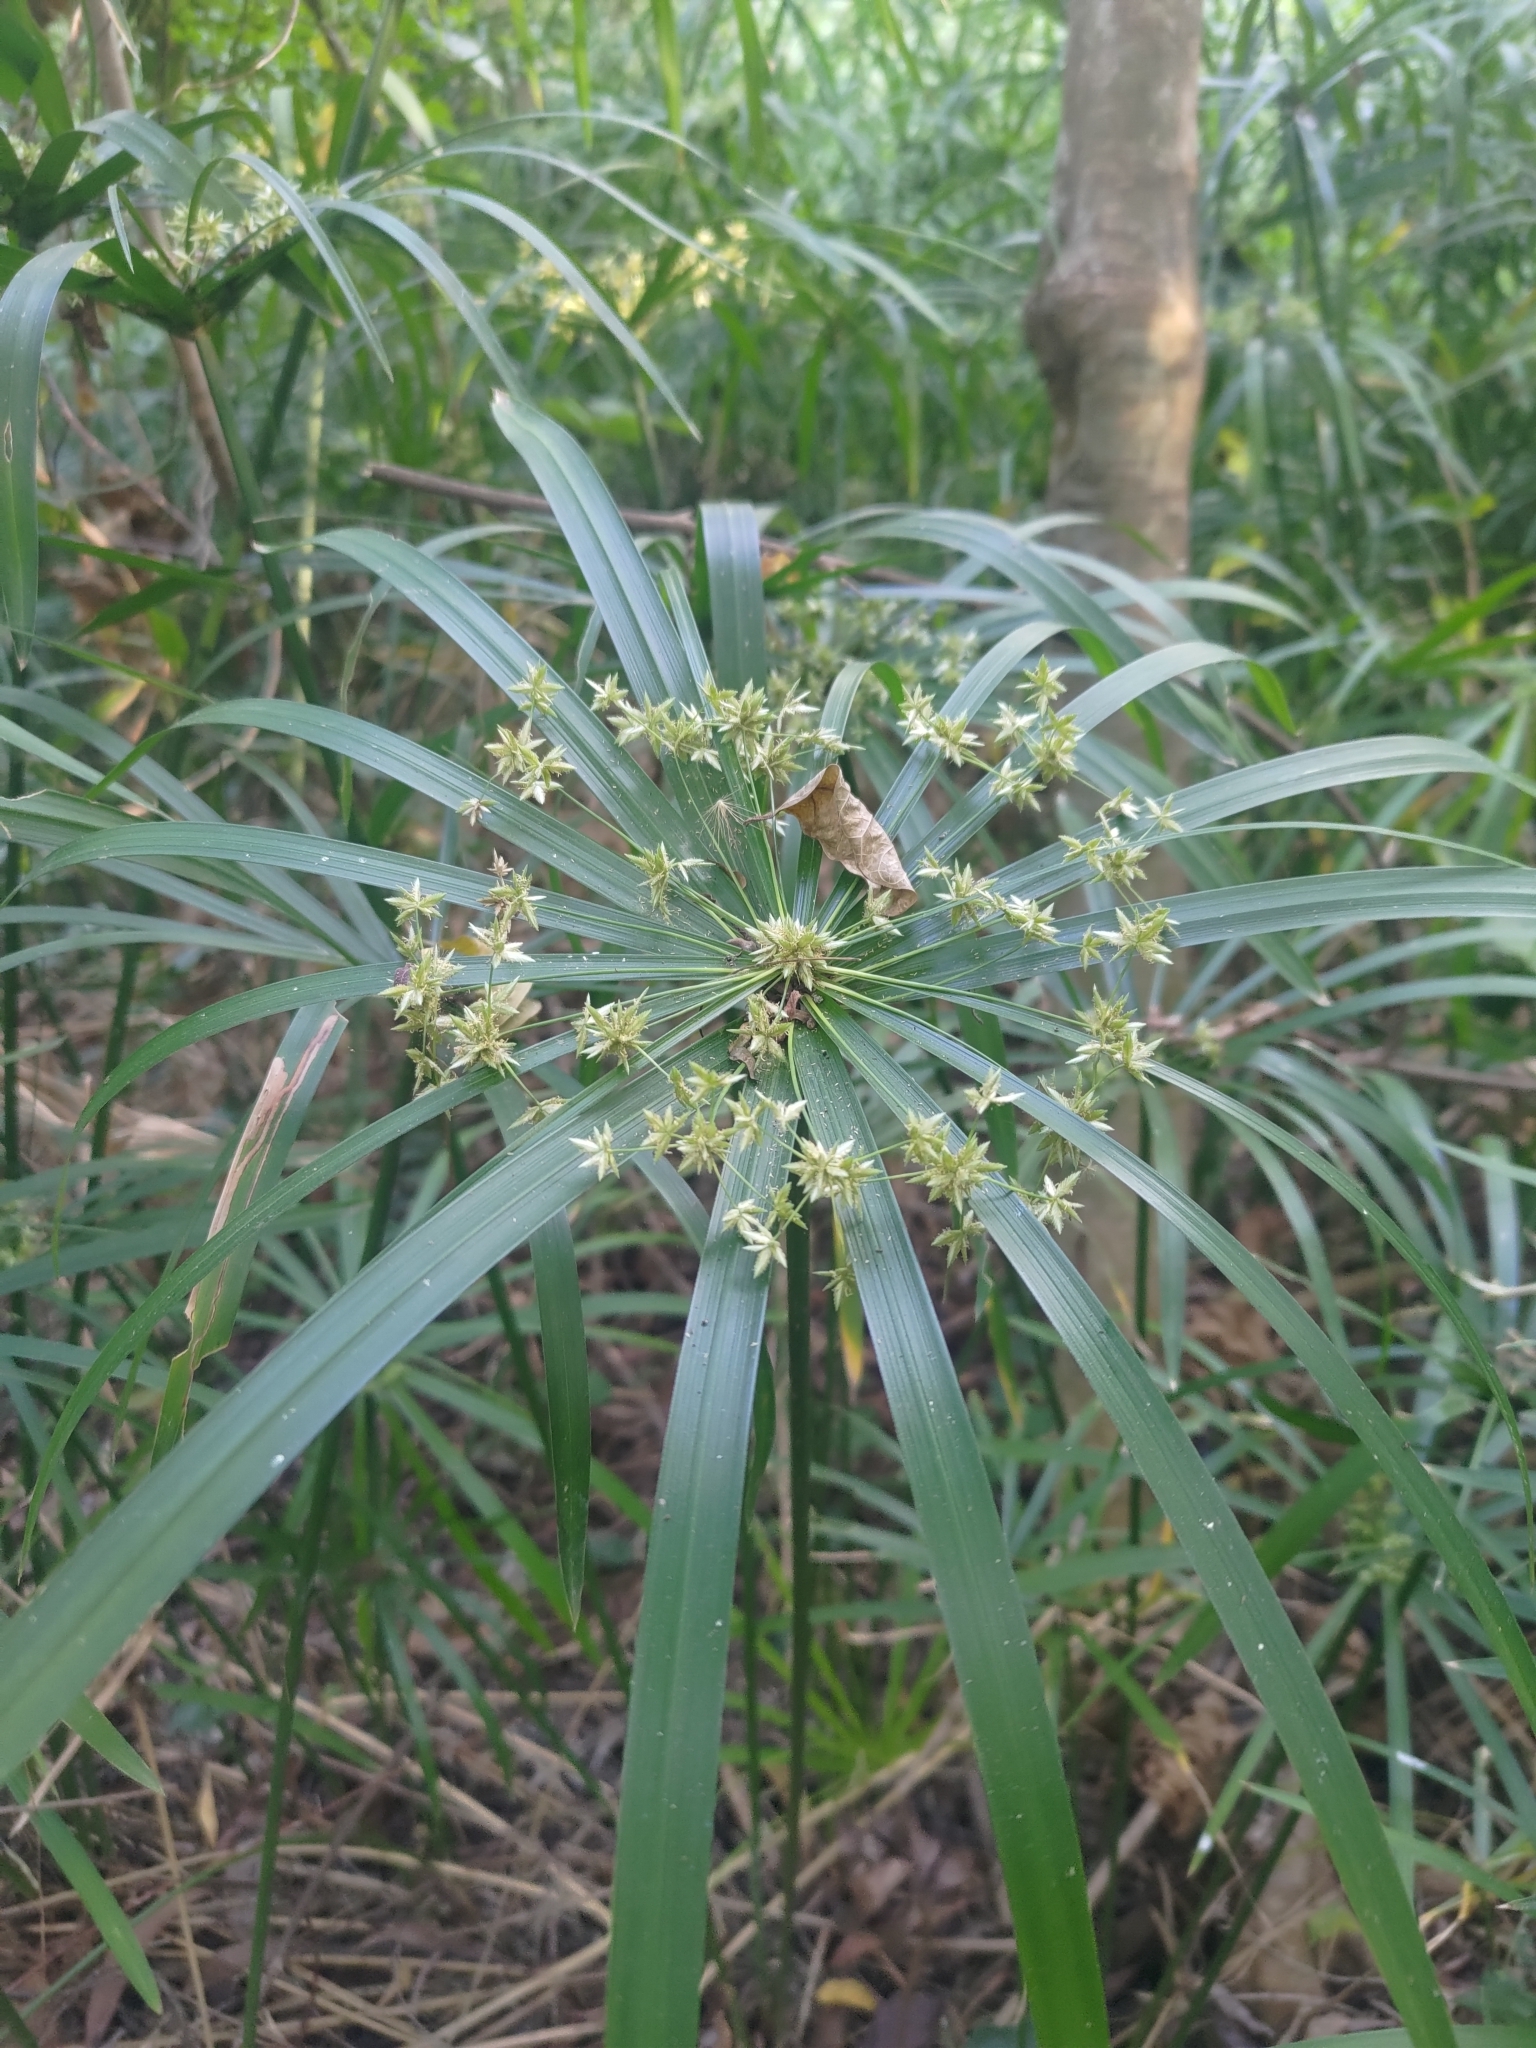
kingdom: Plantae
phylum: Tracheophyta
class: Liliopsida
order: Poales
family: Cyperaceae
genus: Cyperus
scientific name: Cyperus alternifolius
